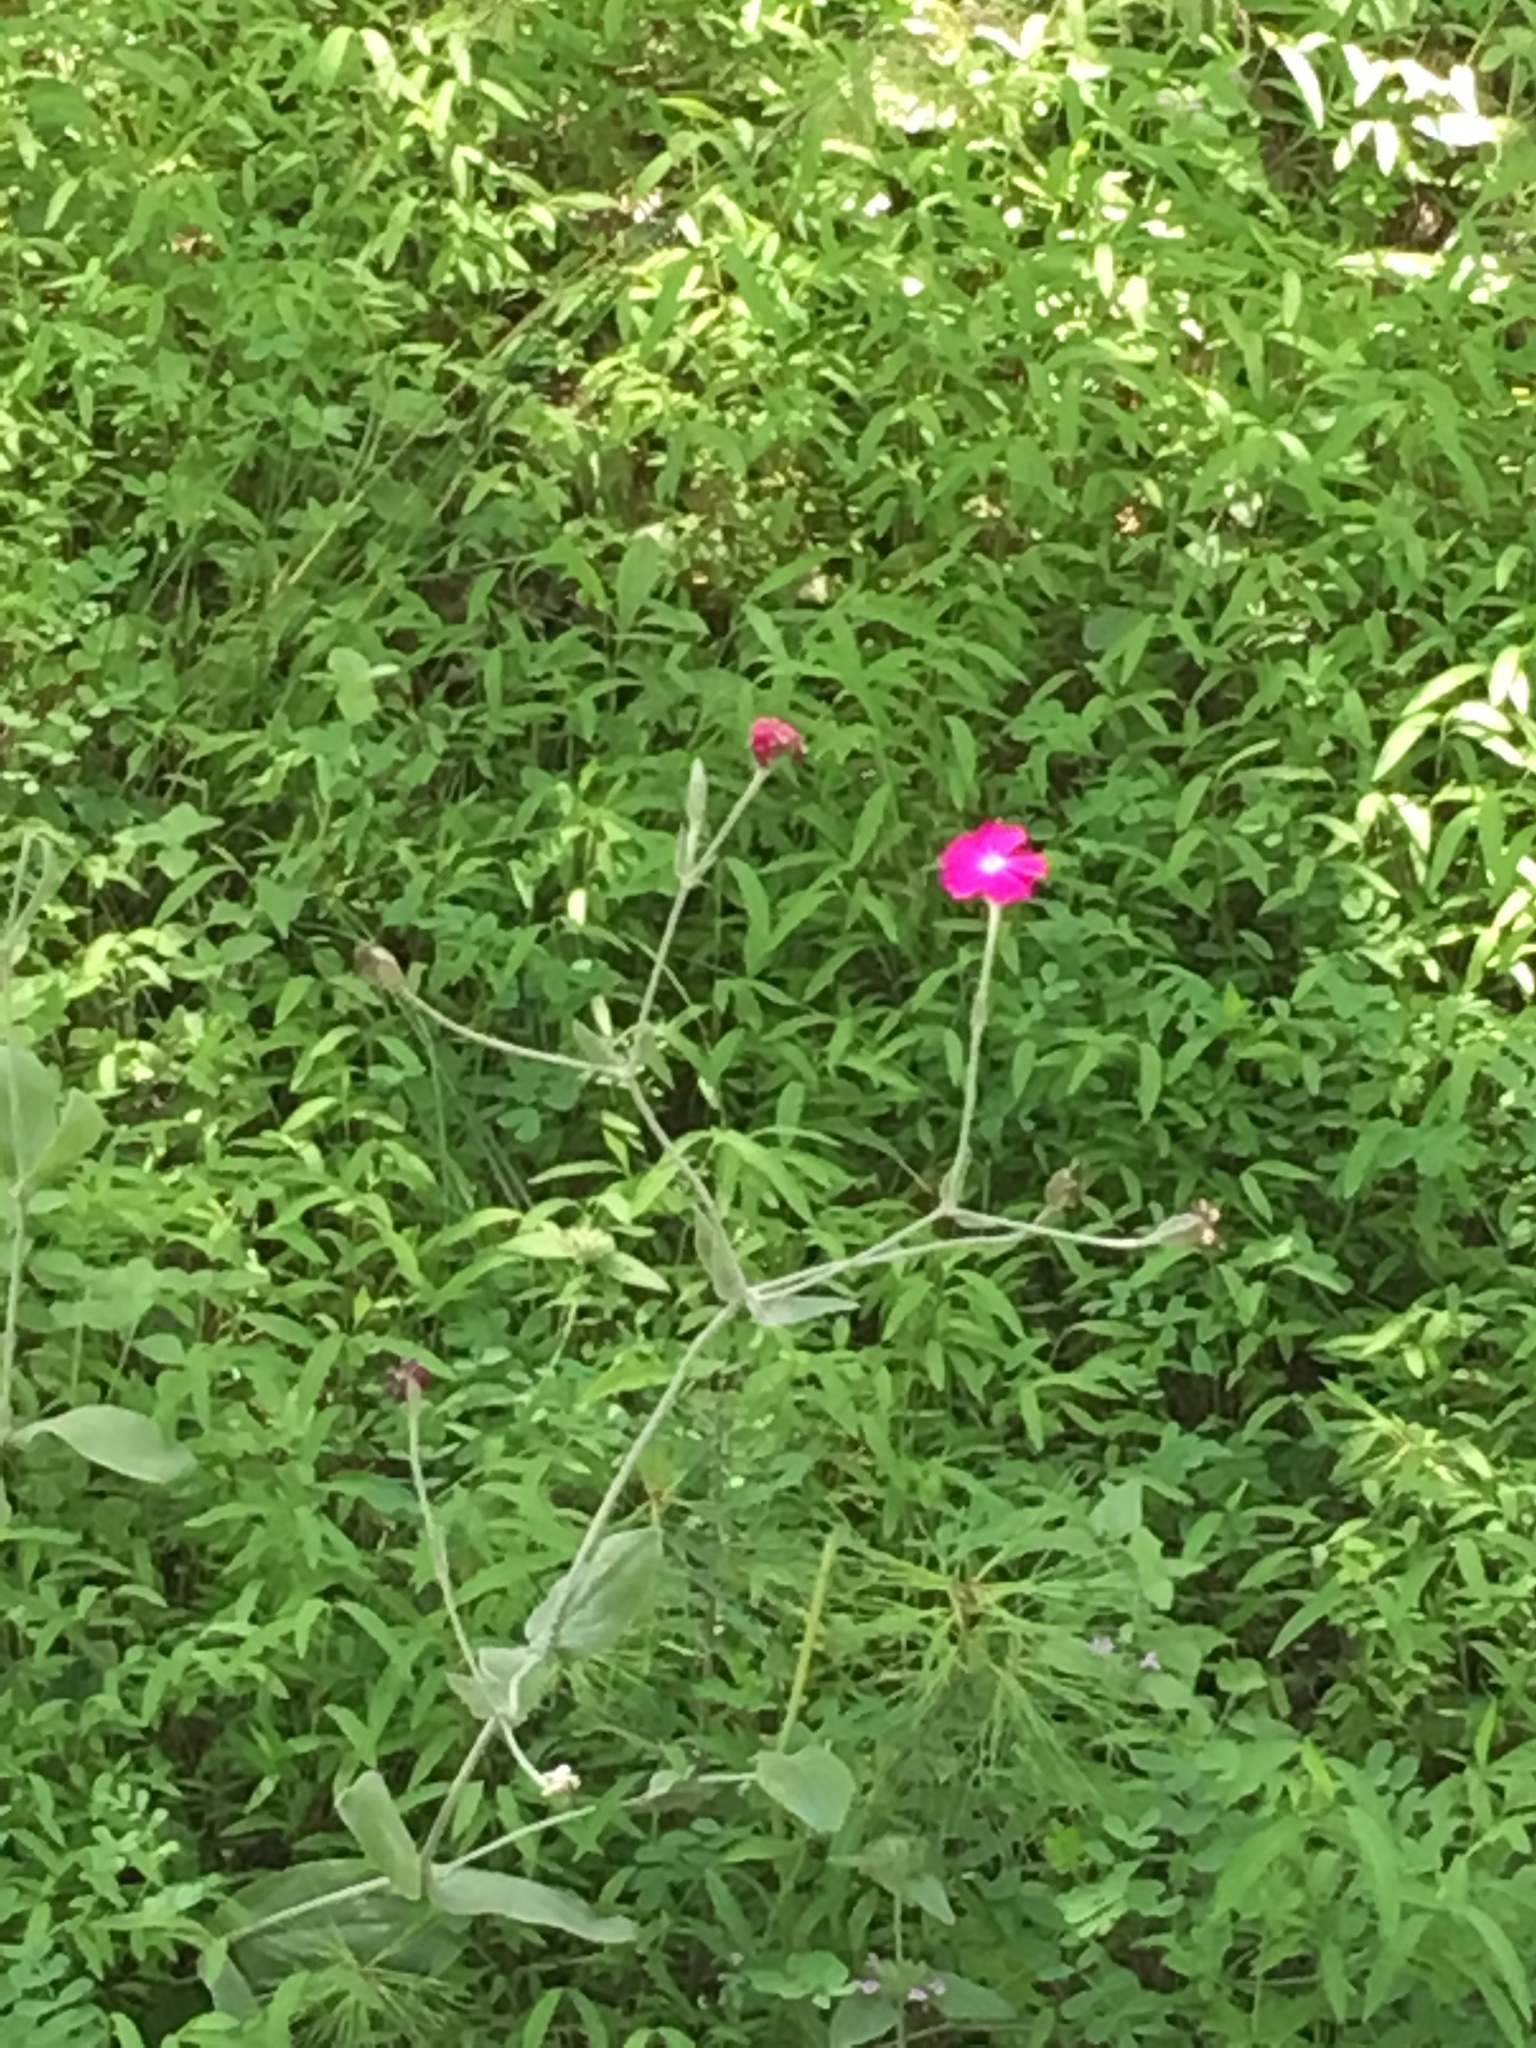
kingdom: Plantae
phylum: Tracheophyta
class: Magnoliopsida
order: Caryophyllales
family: Caryophyllaceae
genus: Silene
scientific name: Silene coronaria
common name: Rose campion
